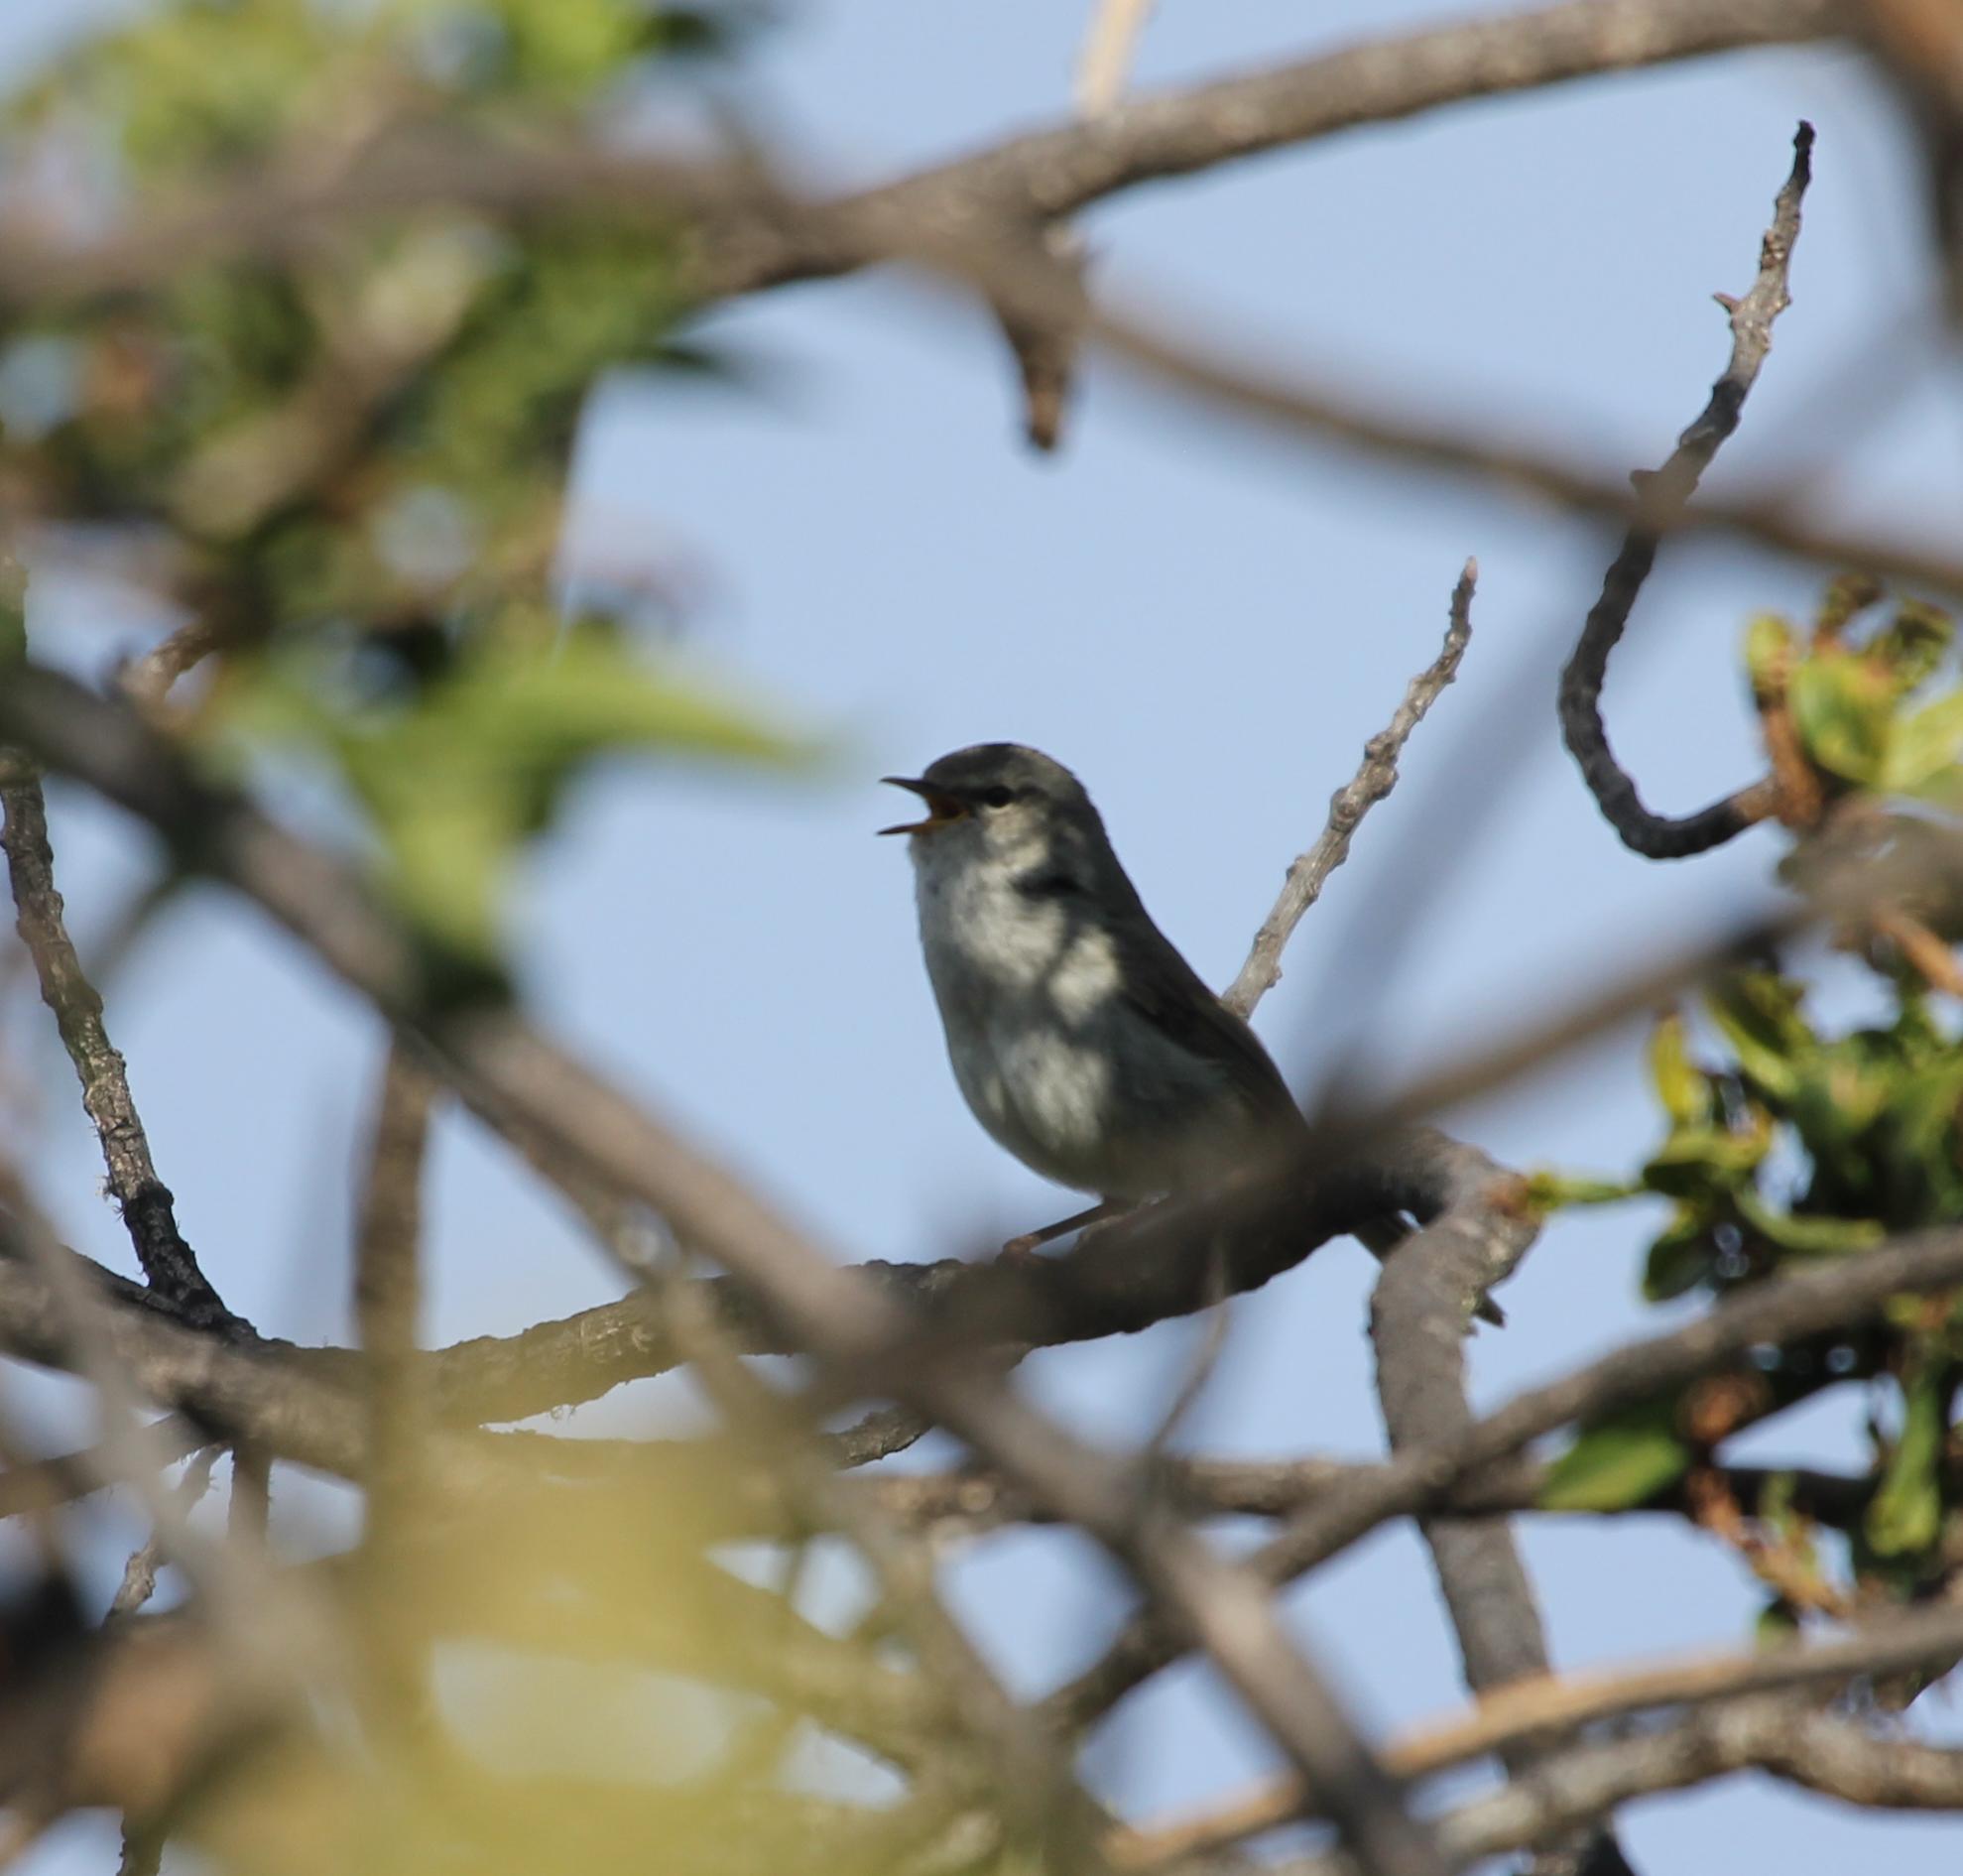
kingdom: Animalia
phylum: Chordata
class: Aves
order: Passeriformes
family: Cettiidae
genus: Horornis
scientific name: Horornis diphone
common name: Japanese bush warbler
